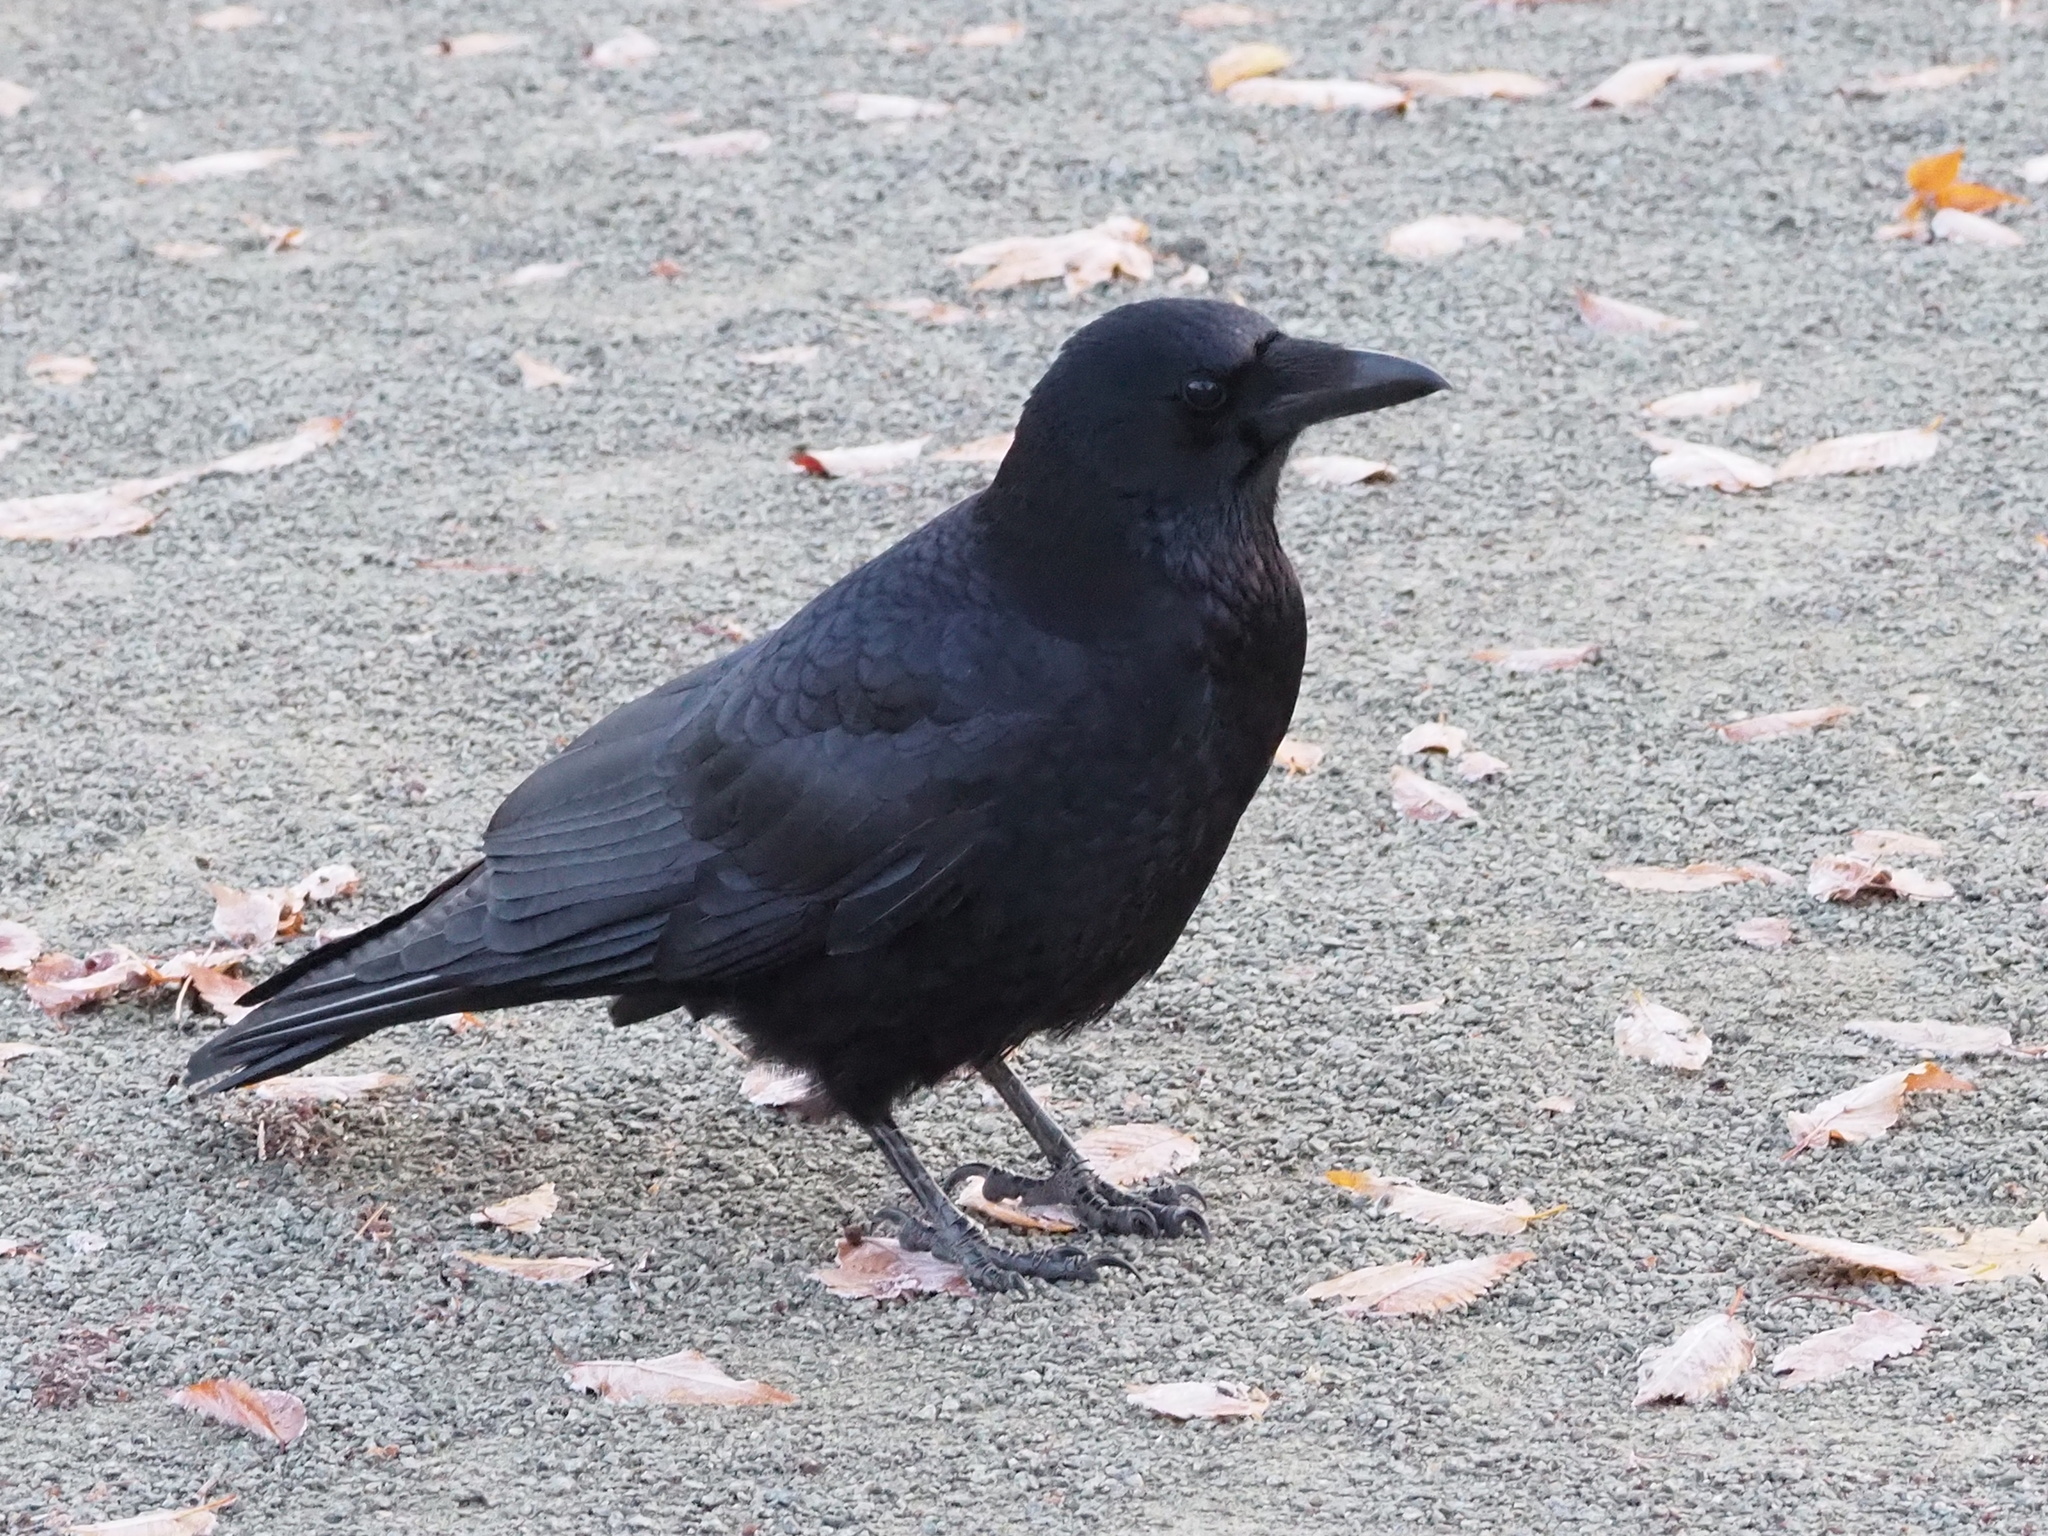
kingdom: Animalia
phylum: Chordata
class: Aves
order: Passeriformes
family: Corvidae
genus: Corvus
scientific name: Corvus corone
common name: Carrion crow
